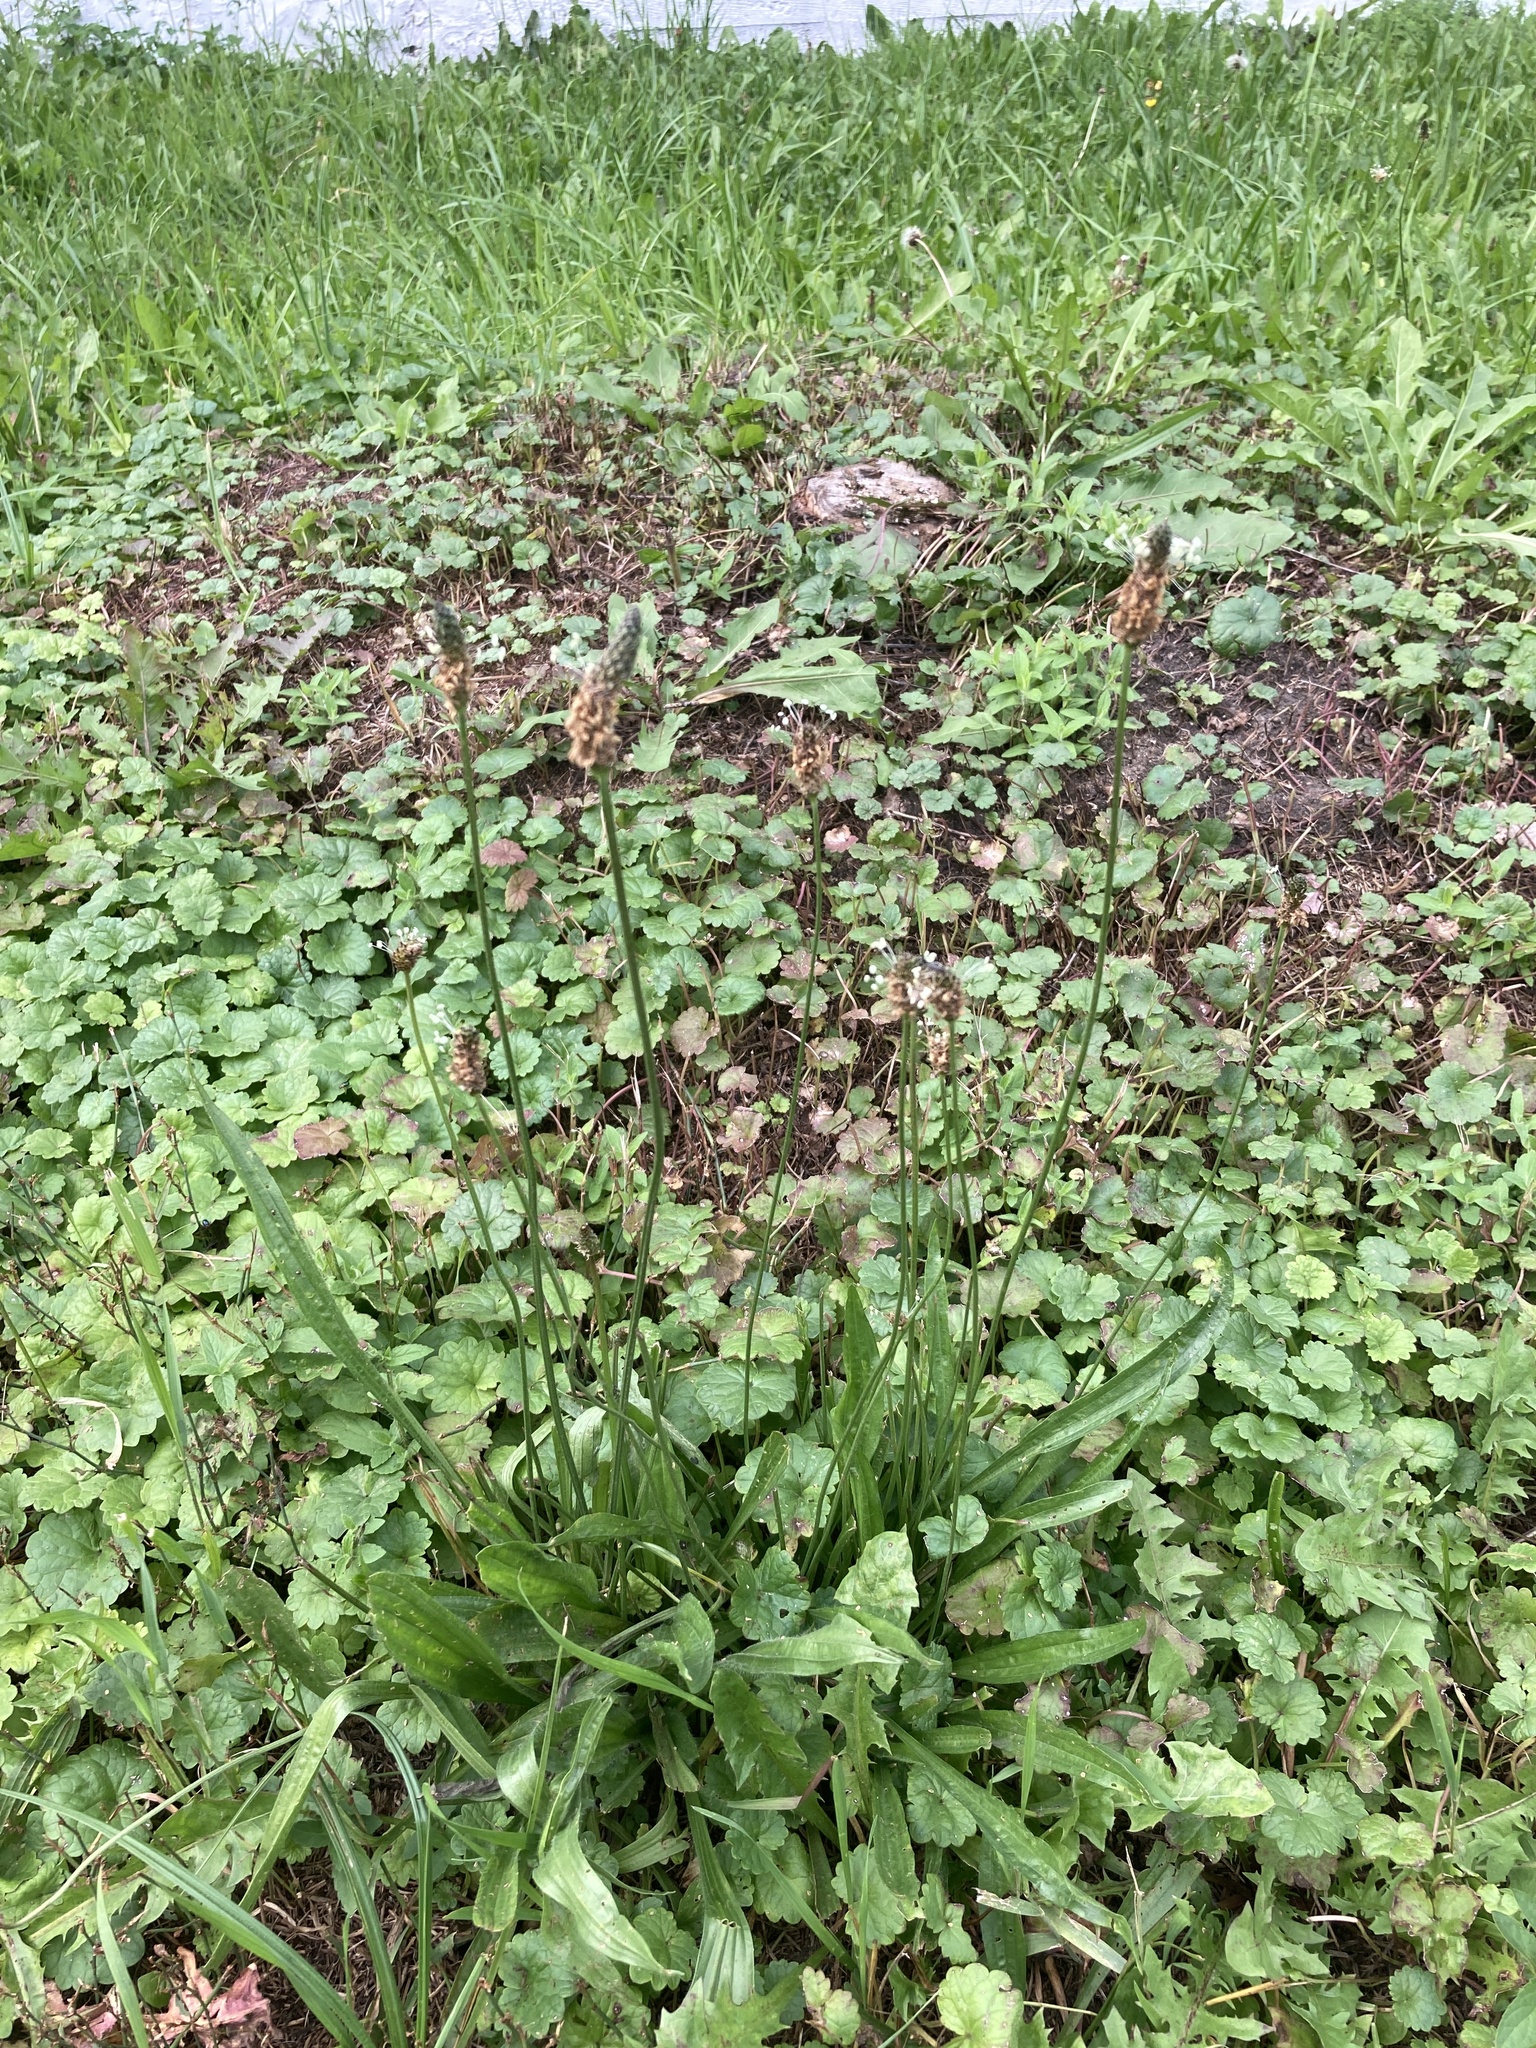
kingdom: Plantae
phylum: Tracheophyta
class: Magnoliopsida
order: Lamiales
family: Plantaginaceae
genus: Plantago
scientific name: Plantago lanceolata
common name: Ribwort plantain
